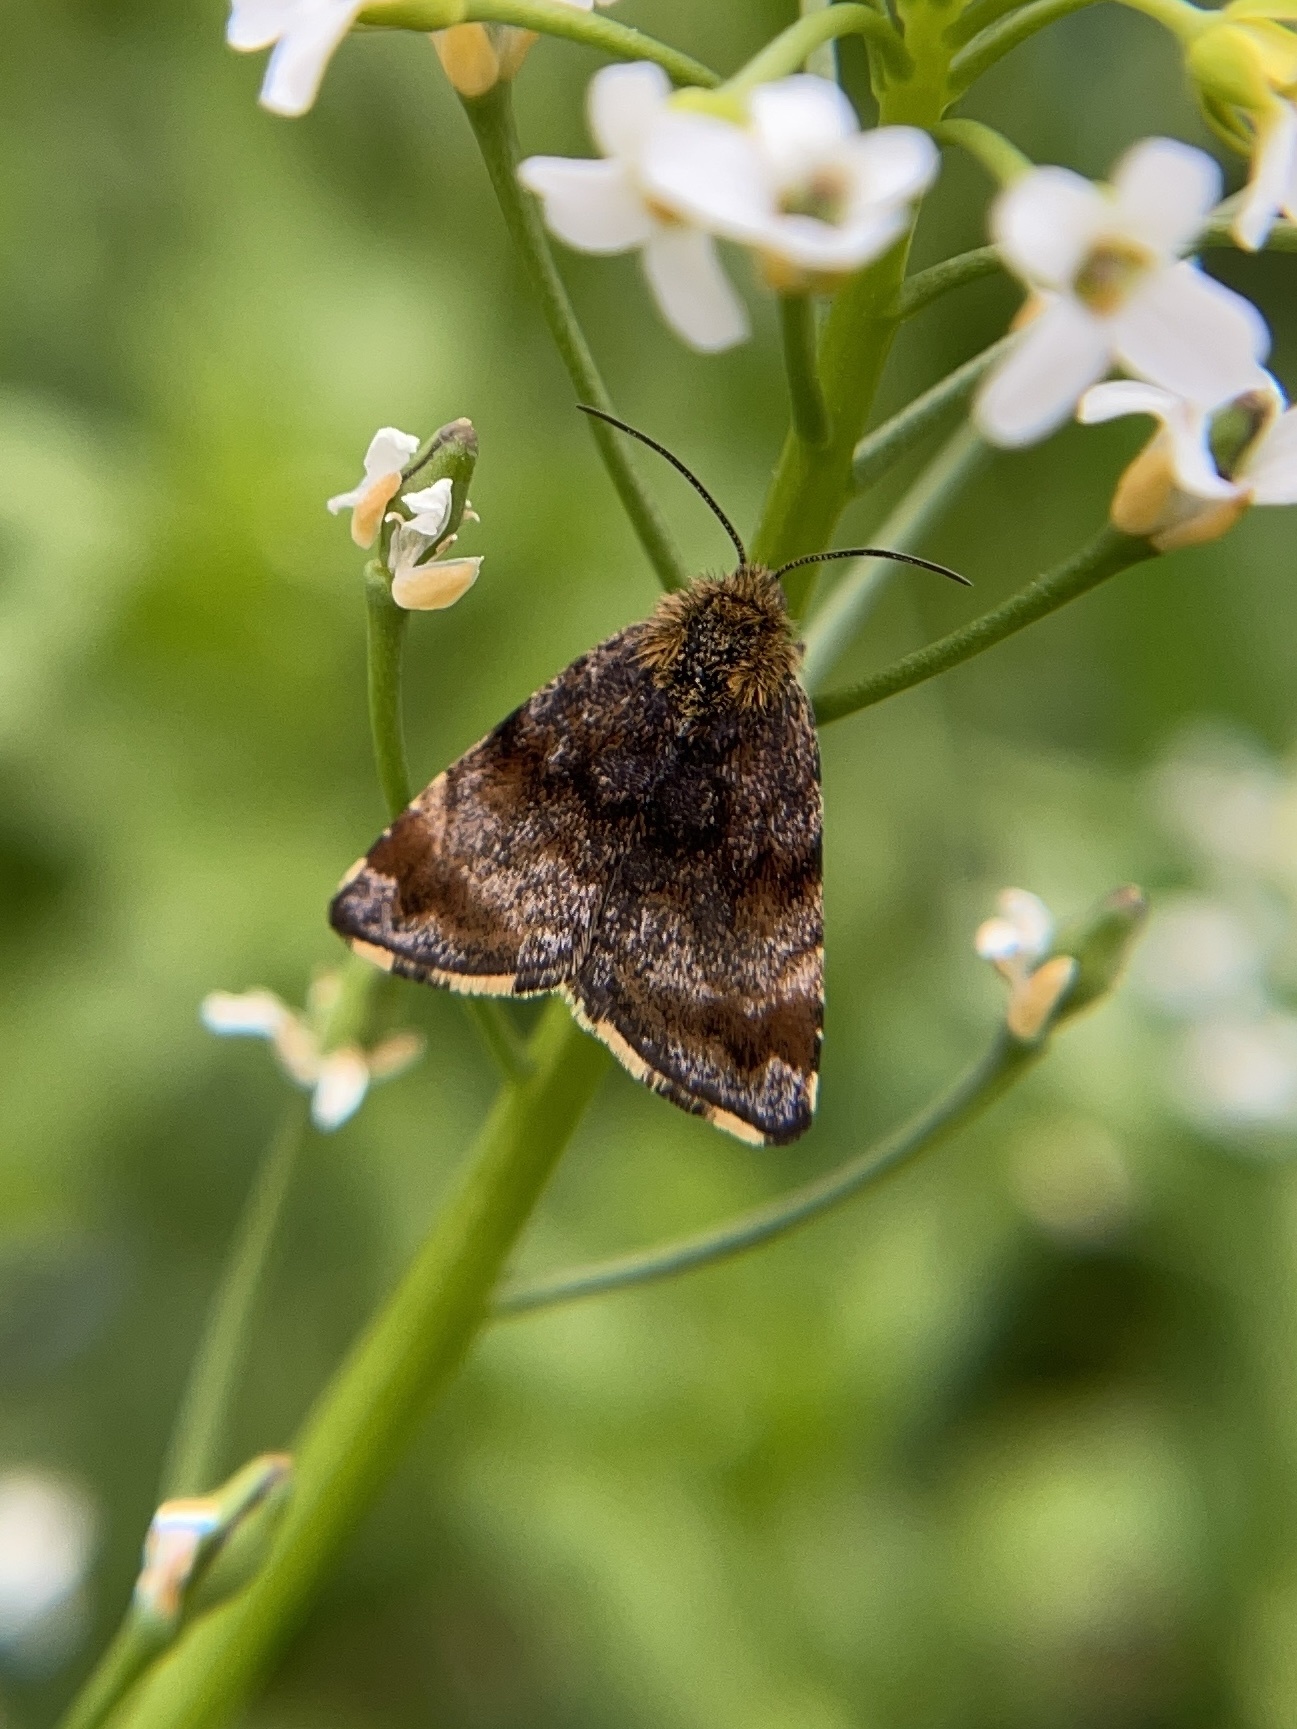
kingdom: Animalia
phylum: Arthropoda
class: Insecta
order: Lepidoptera
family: Noctuidae
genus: Panemeria
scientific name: Panemeria tenebrata
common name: Small yellow underwing
